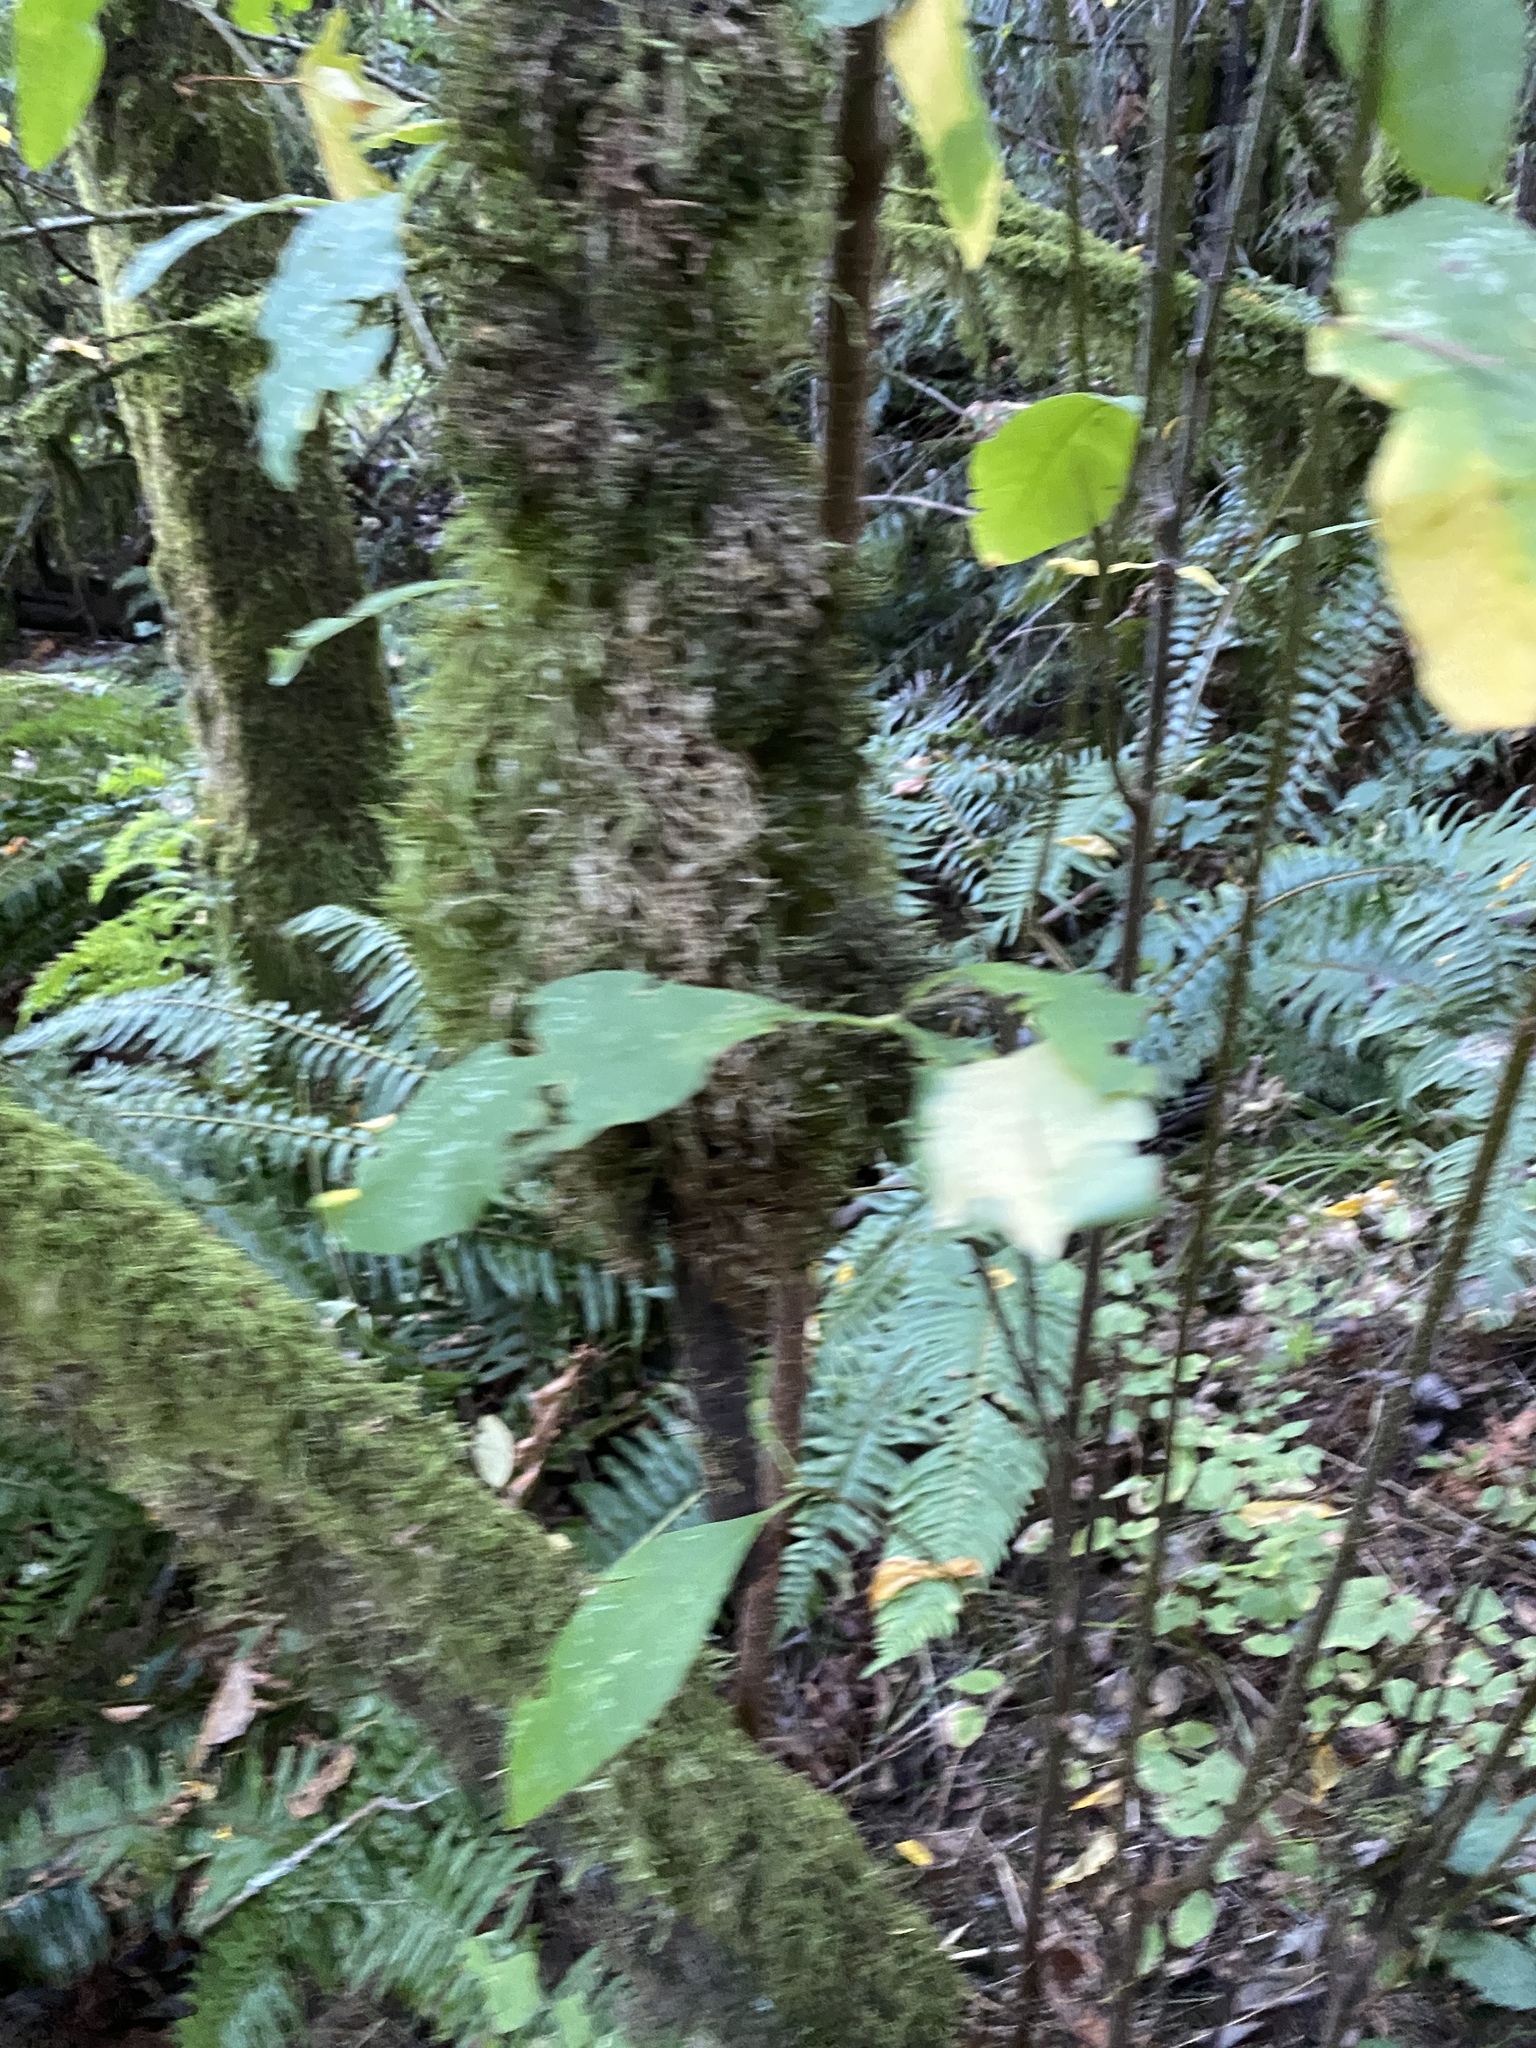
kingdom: Plantae
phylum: Tracheophyta
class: Magnoliopsida
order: Rosales
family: Rosaceae
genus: Oemleria
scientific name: Oemleria cerasiformis
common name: Osoberry
